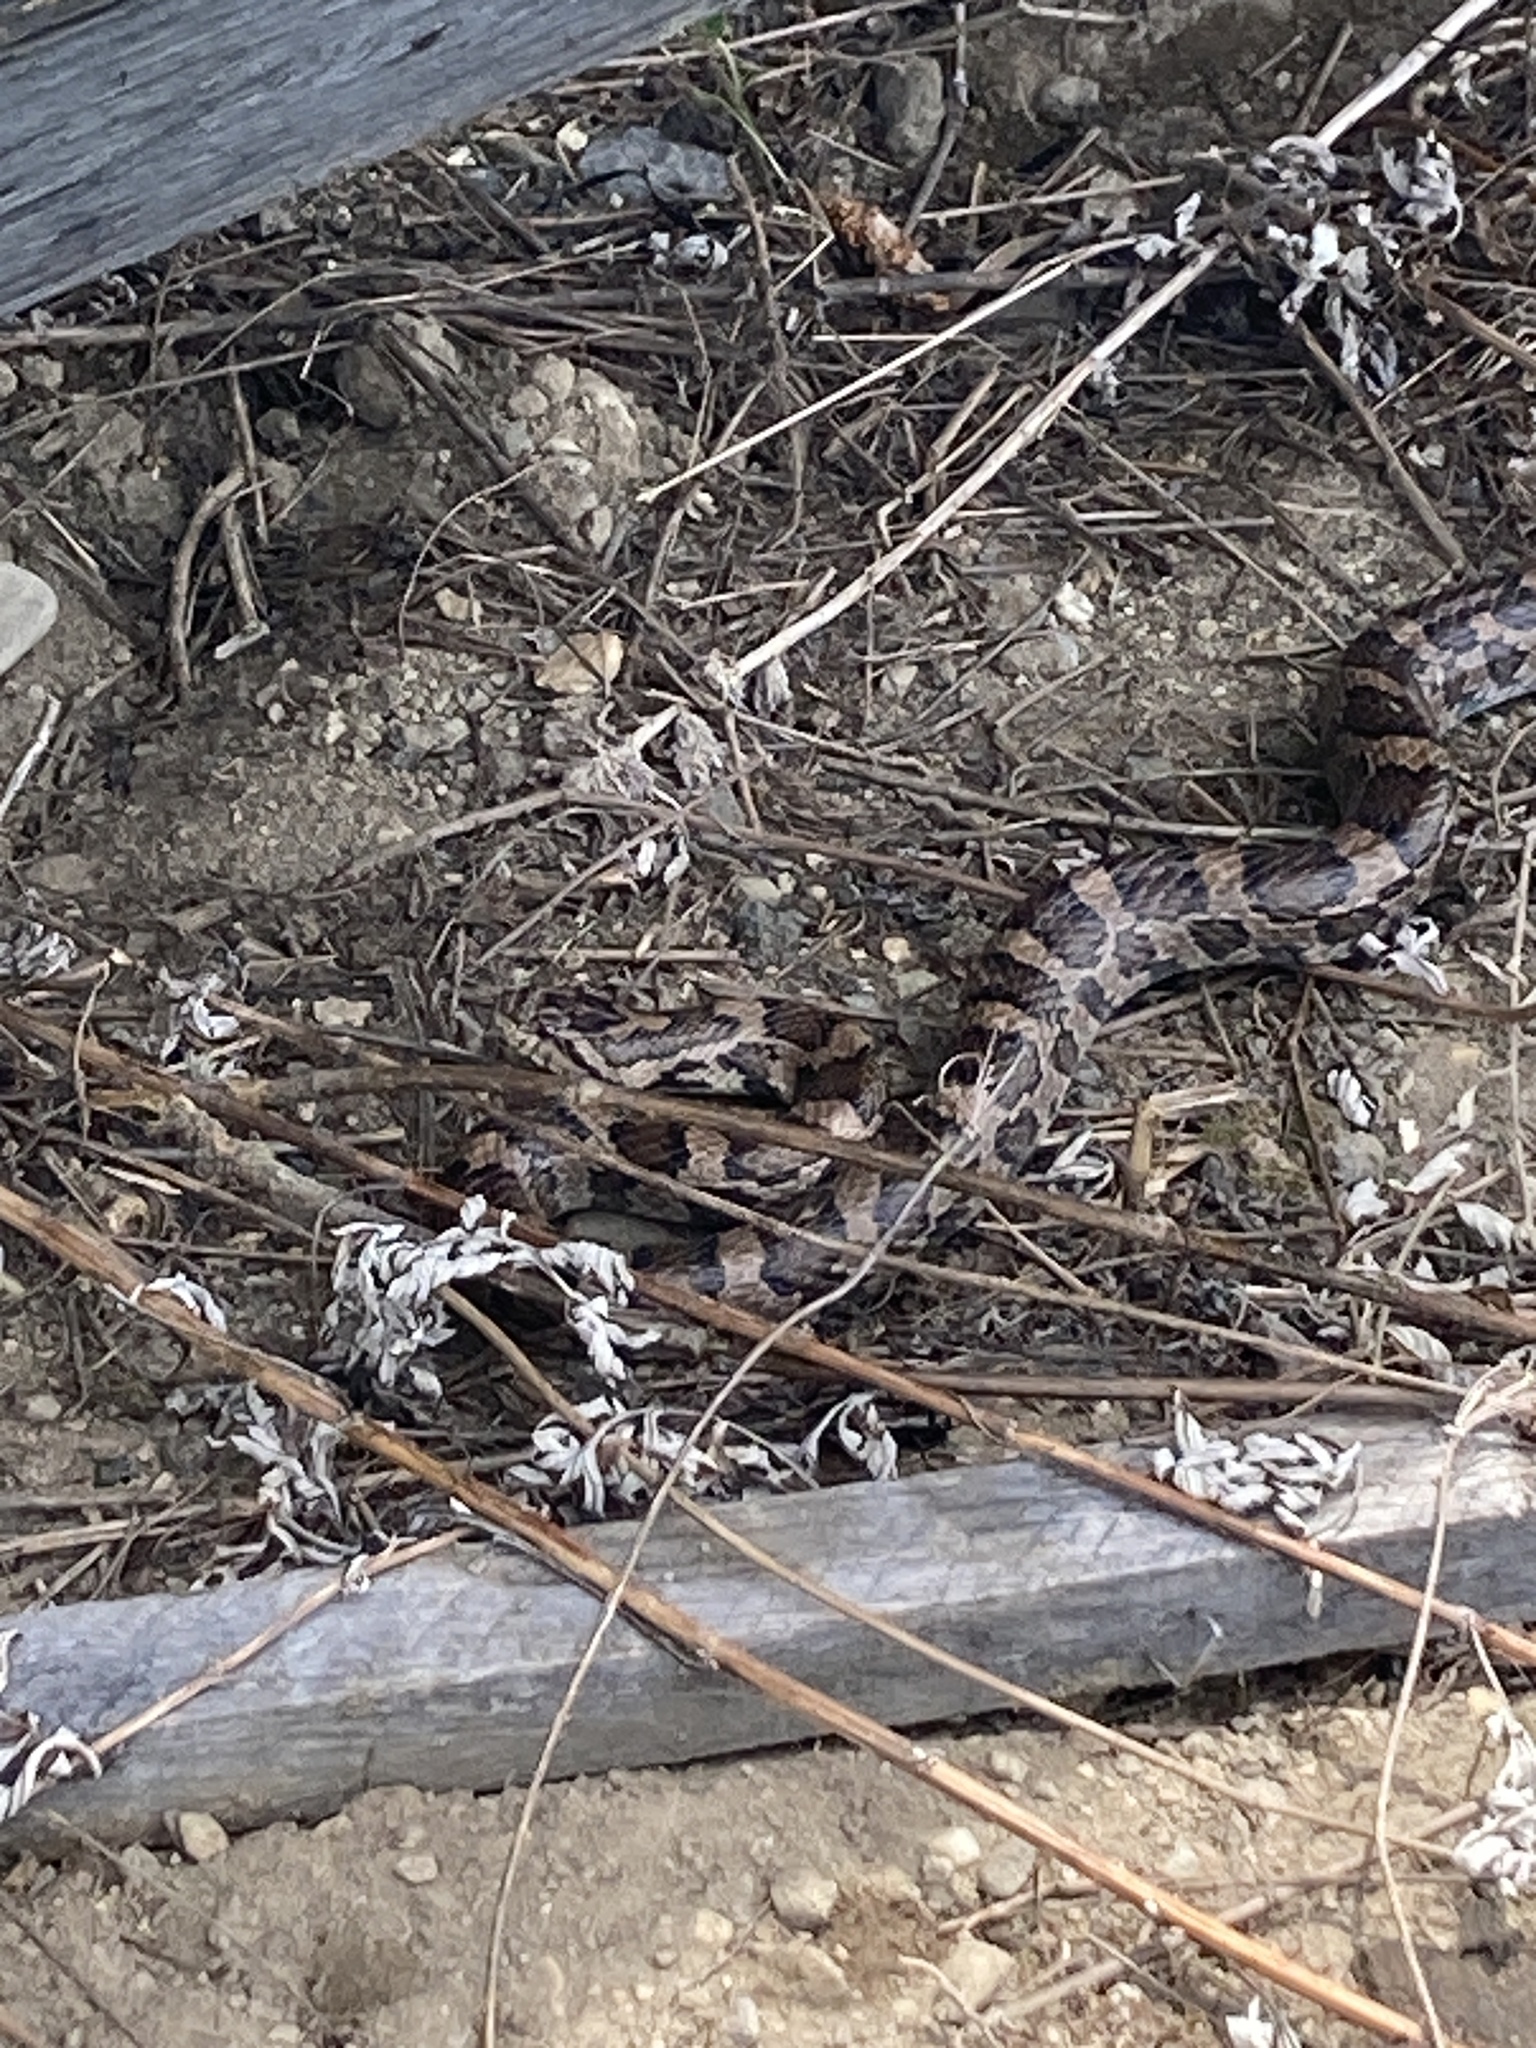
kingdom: Animalia
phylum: Chordata
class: Squamata
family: Colubridae
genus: Lampropeltis
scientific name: Lampropeltis triangulum
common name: Eastern milksnake
